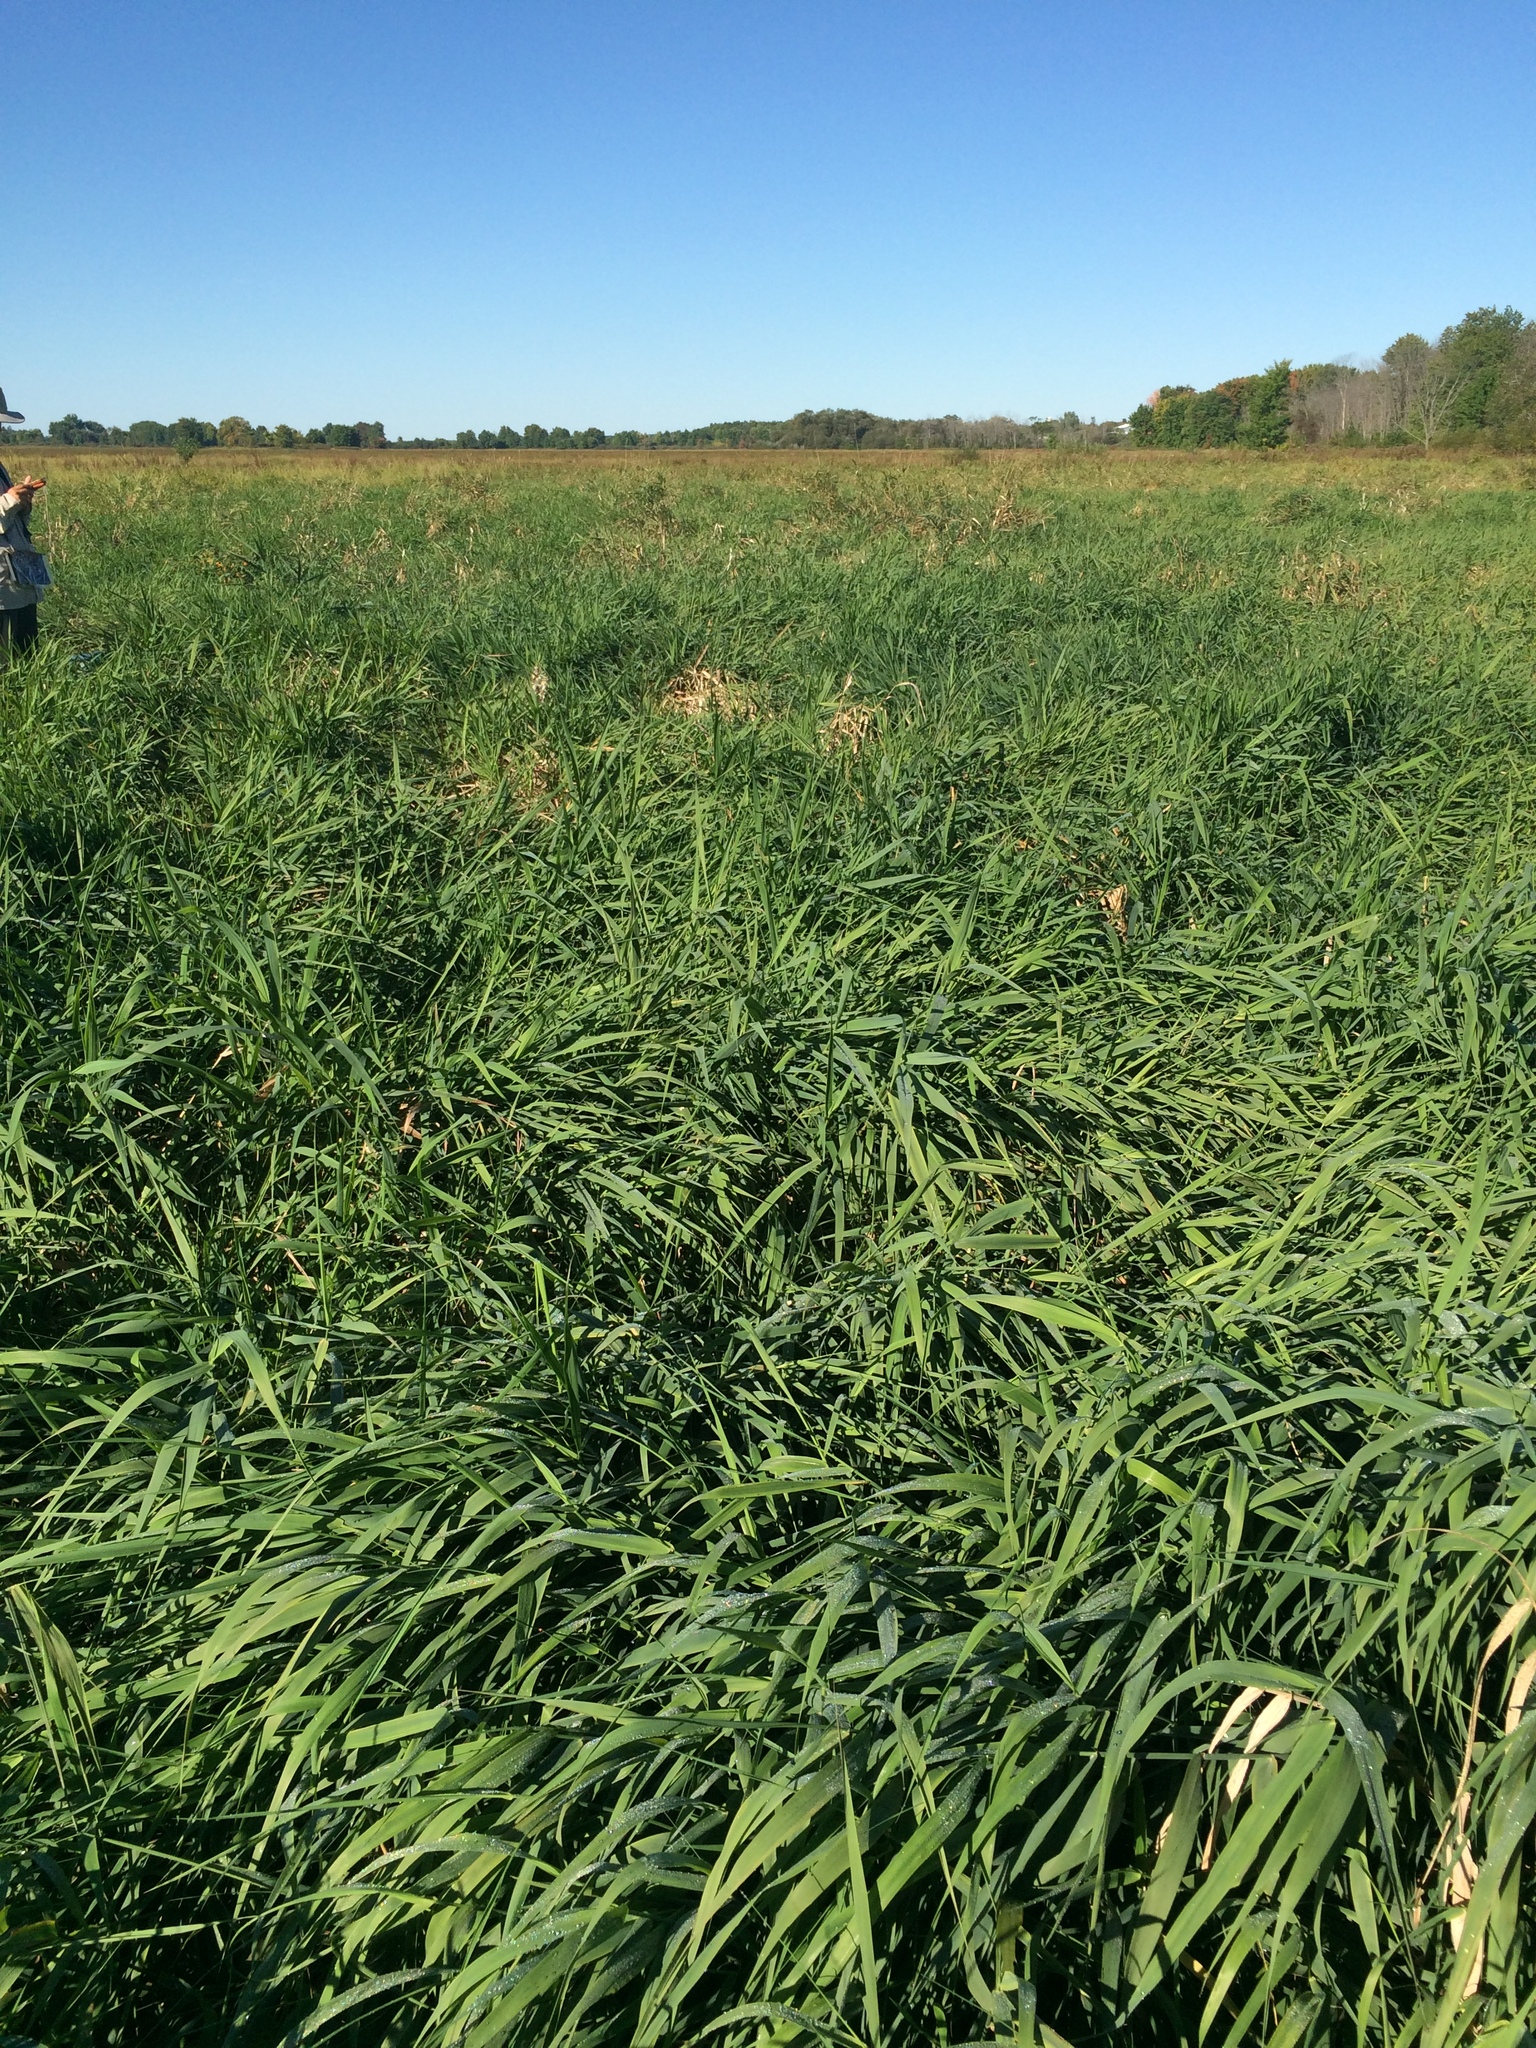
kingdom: Plantae
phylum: Tracheophyta
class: Liliopsida
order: Poales
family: Poaceae
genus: Phalaris
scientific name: Phalaris arundinacea
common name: Reed canary-grass
